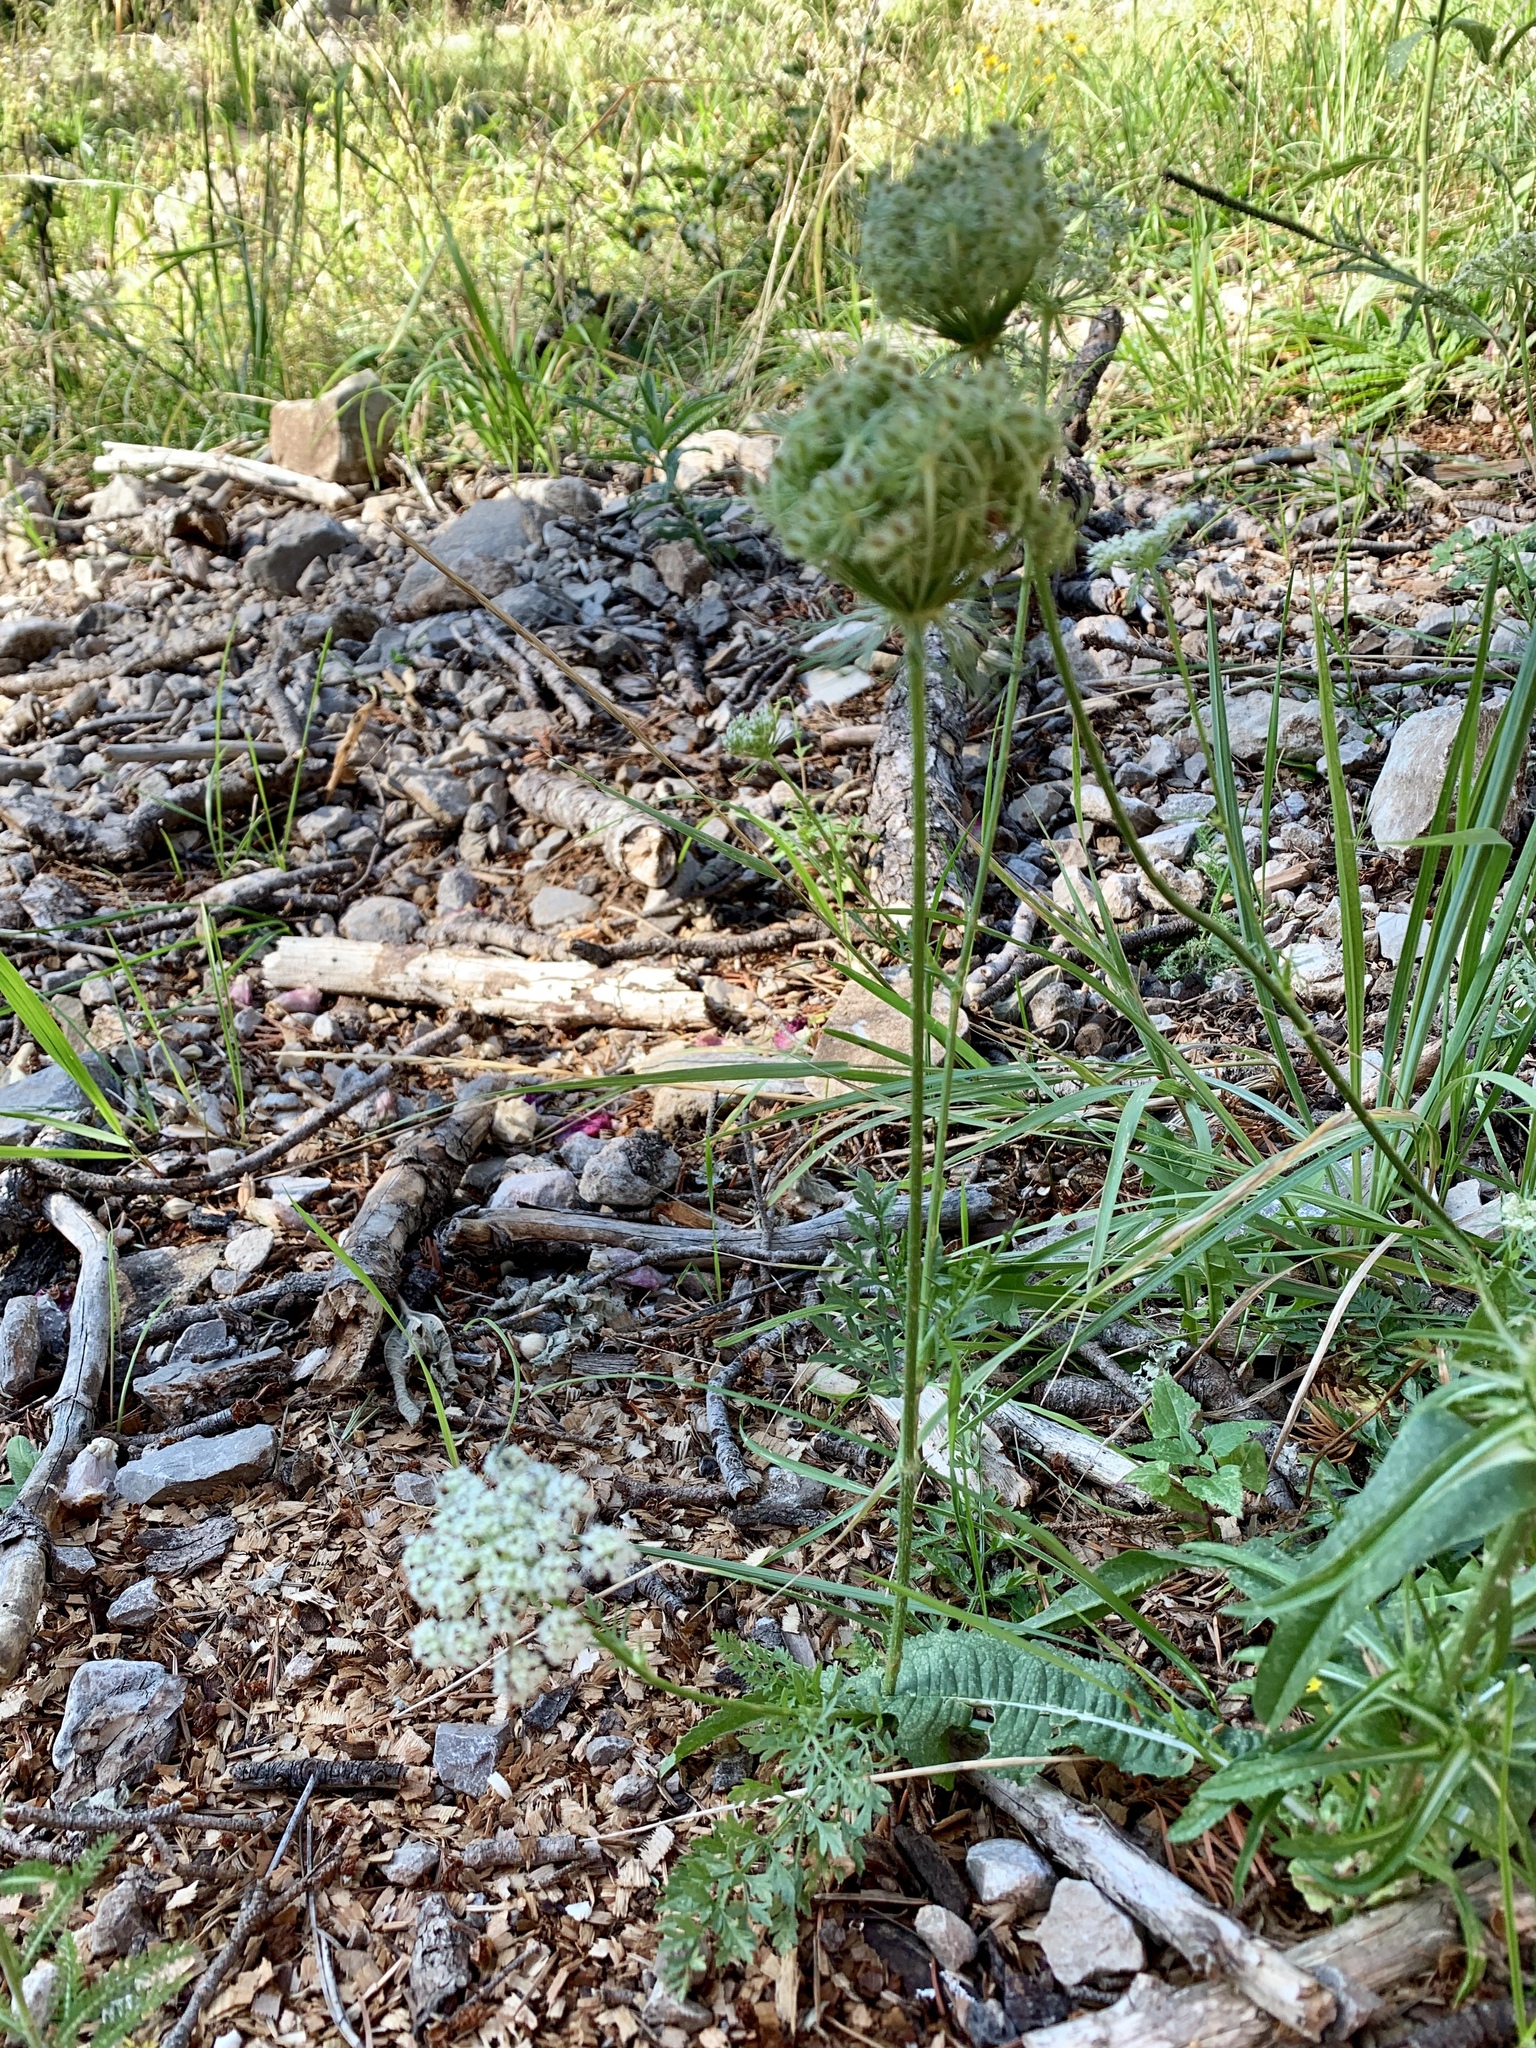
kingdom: Plantae
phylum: Tracheophyta
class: Magnoliopsida
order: Apiales
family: Apiaceae
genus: Daucus
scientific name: Daucus carota
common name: Wild carrot
